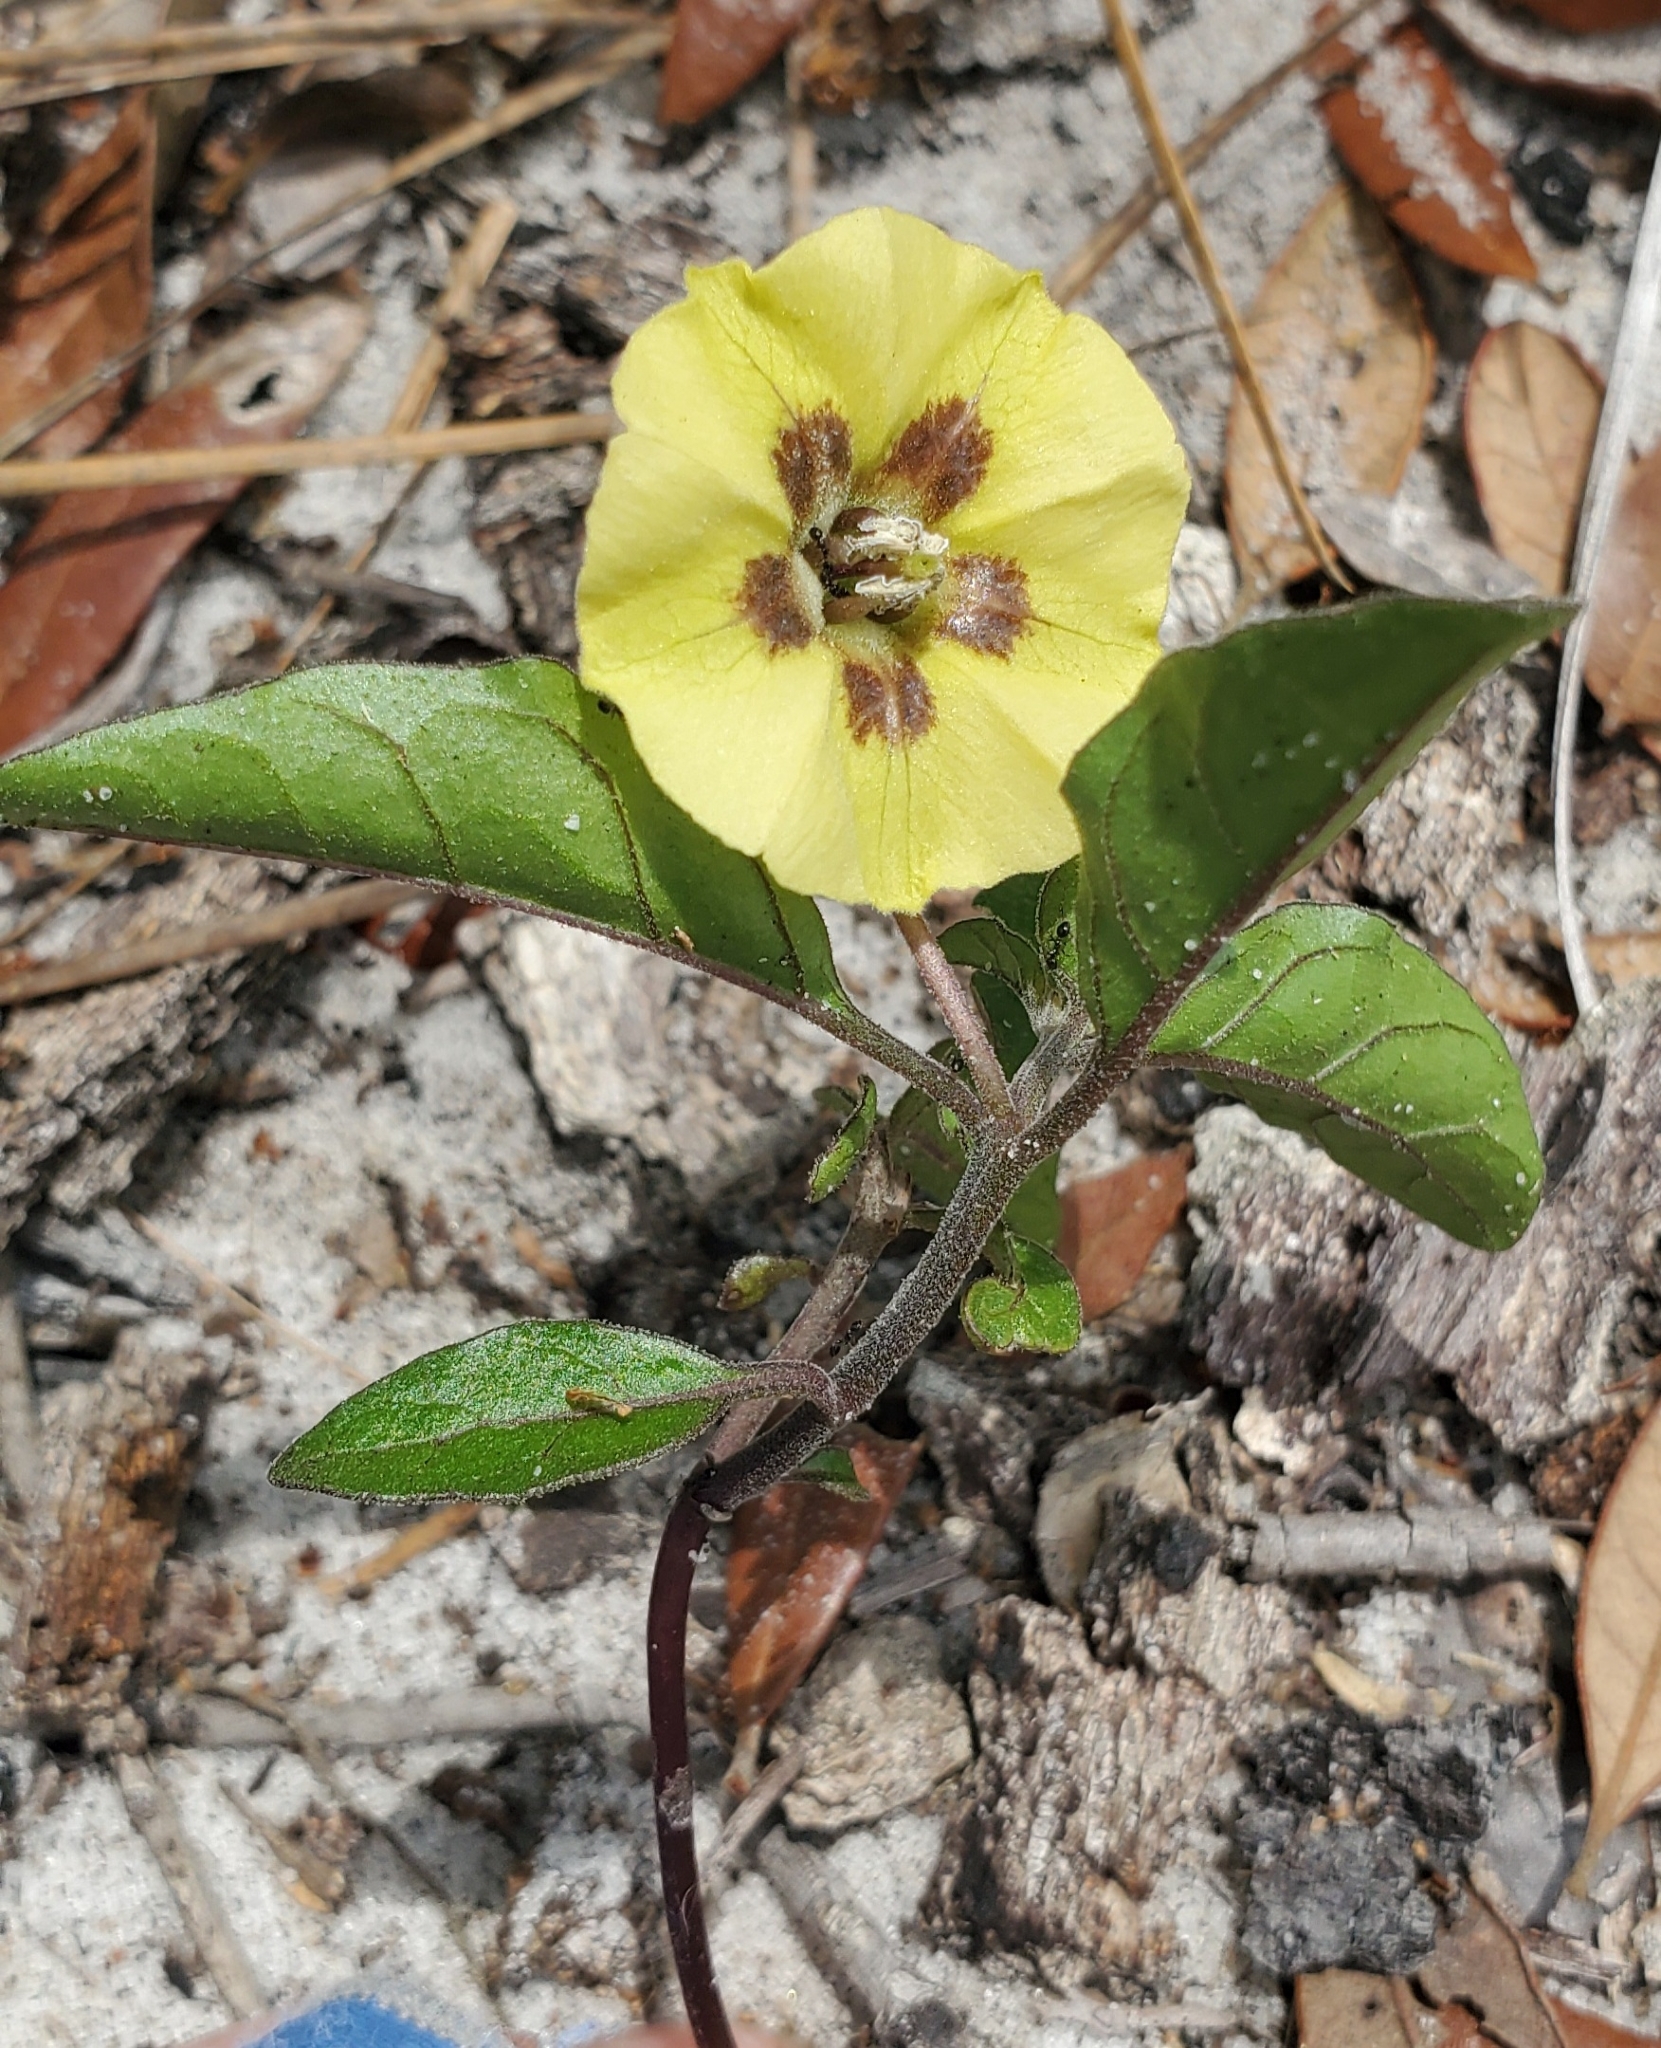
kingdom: Plantae
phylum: Tracheophyta
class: Magnoliopsida
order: Solanales
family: Solanaceae
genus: Physalis
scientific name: Physalis walteri
